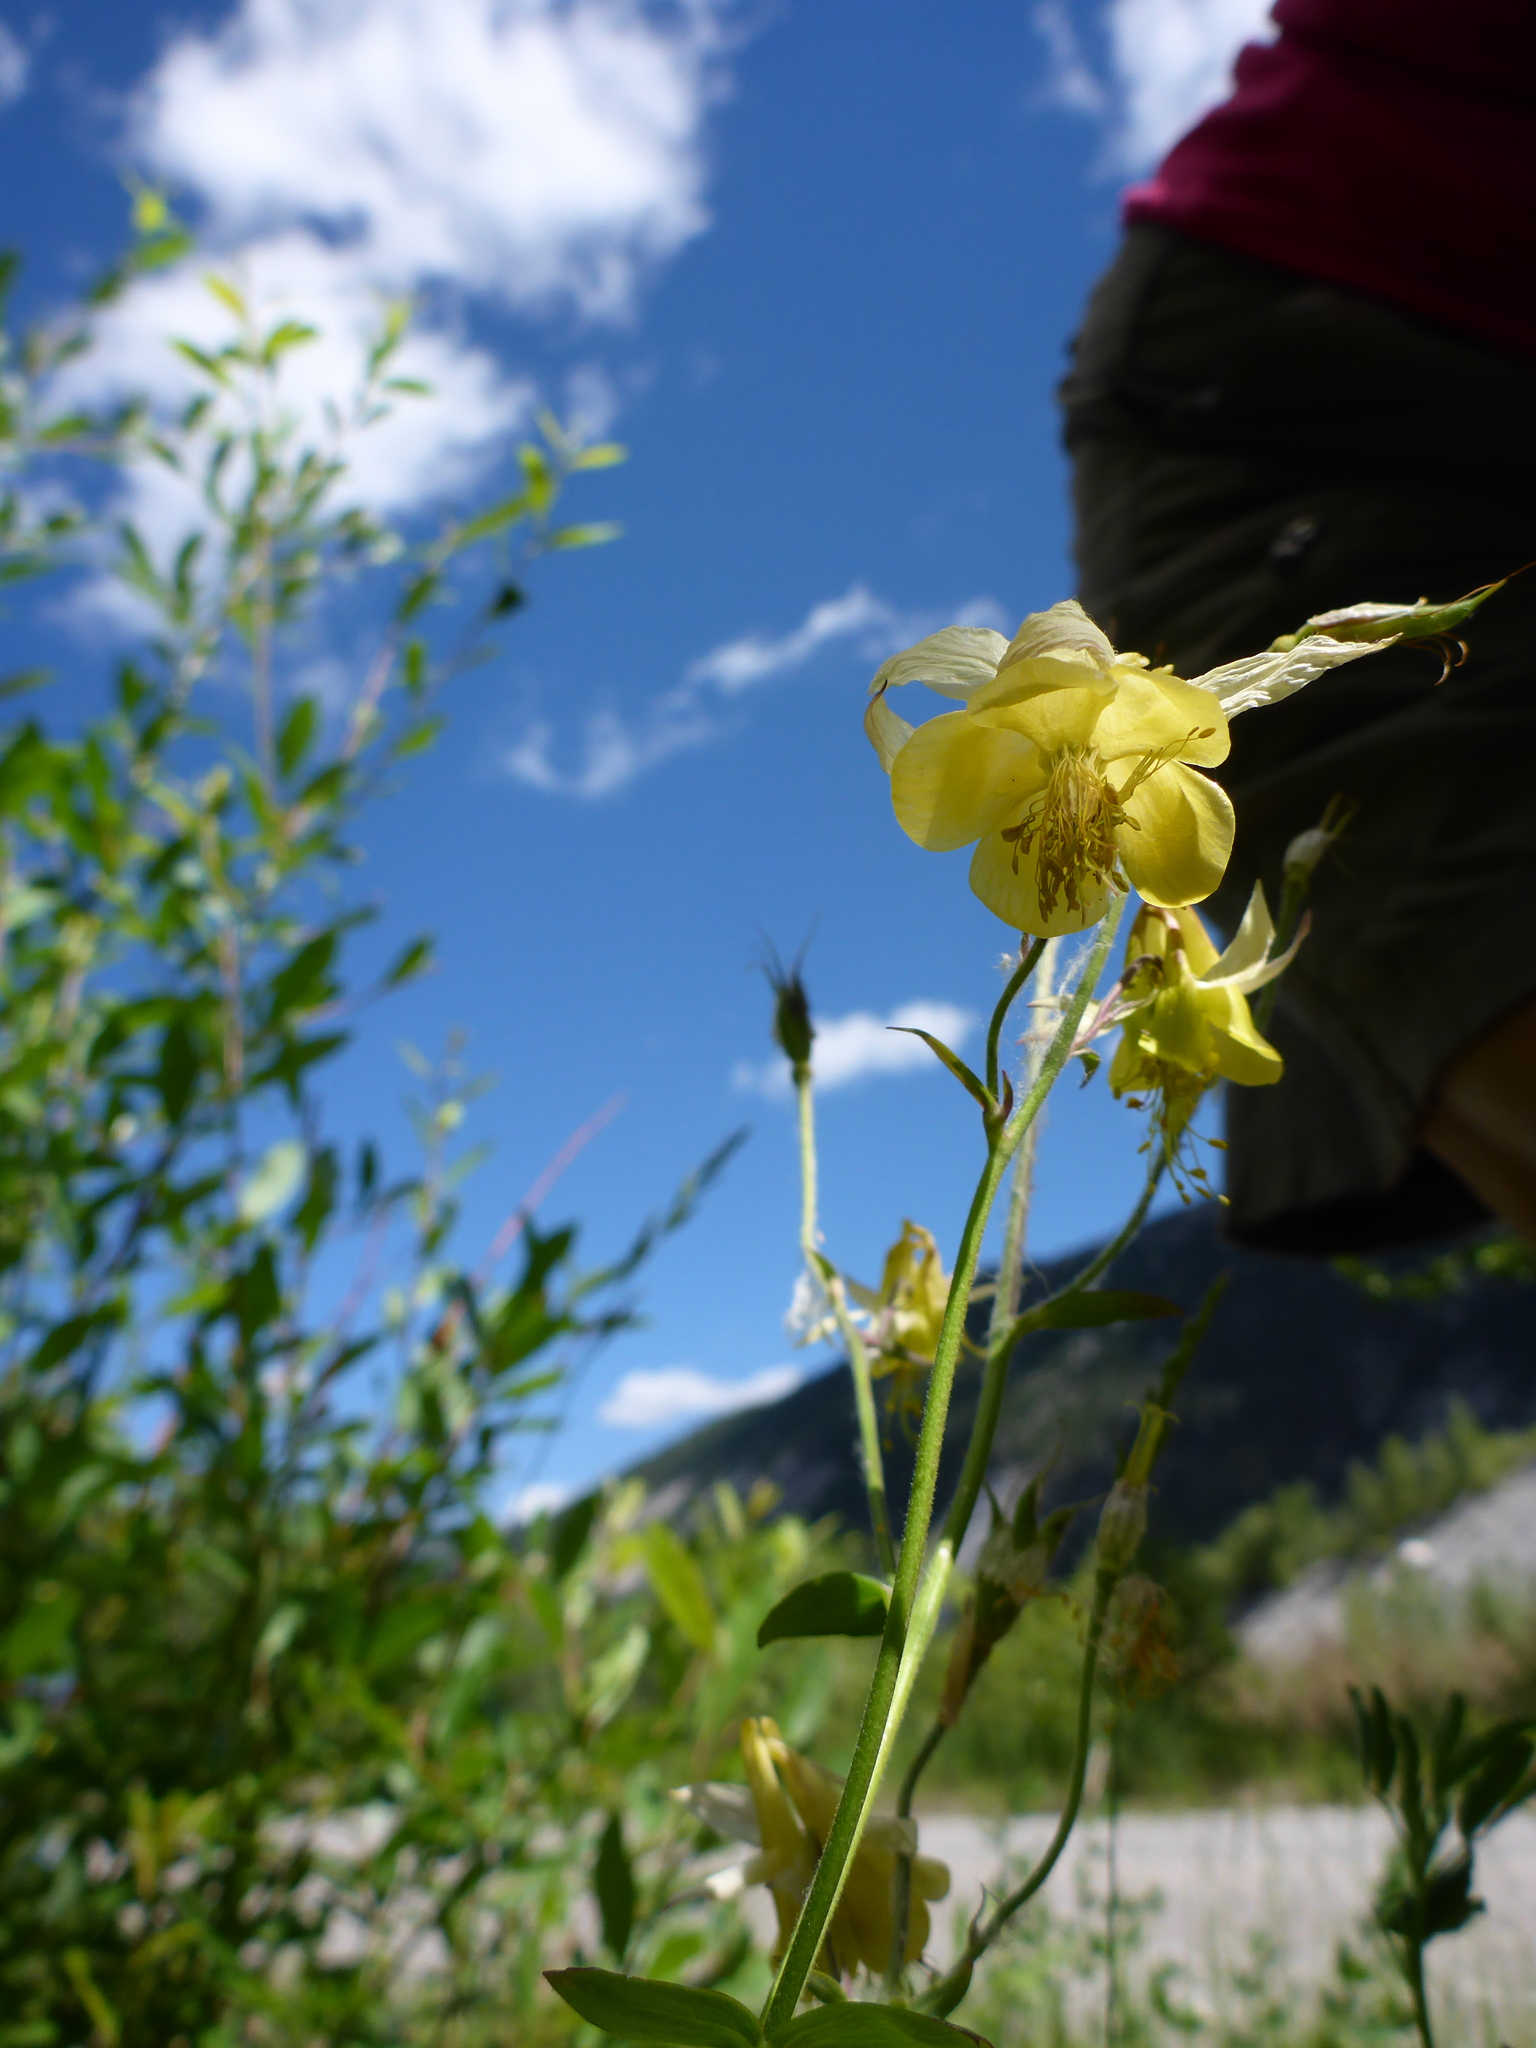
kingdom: Plantae
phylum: Tracheophyta
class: Magnoliopsida
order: Ranunculales
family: Ranunculaceae
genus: Aquilegia
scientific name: Aquilegia flavescens
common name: Yellow columbine
